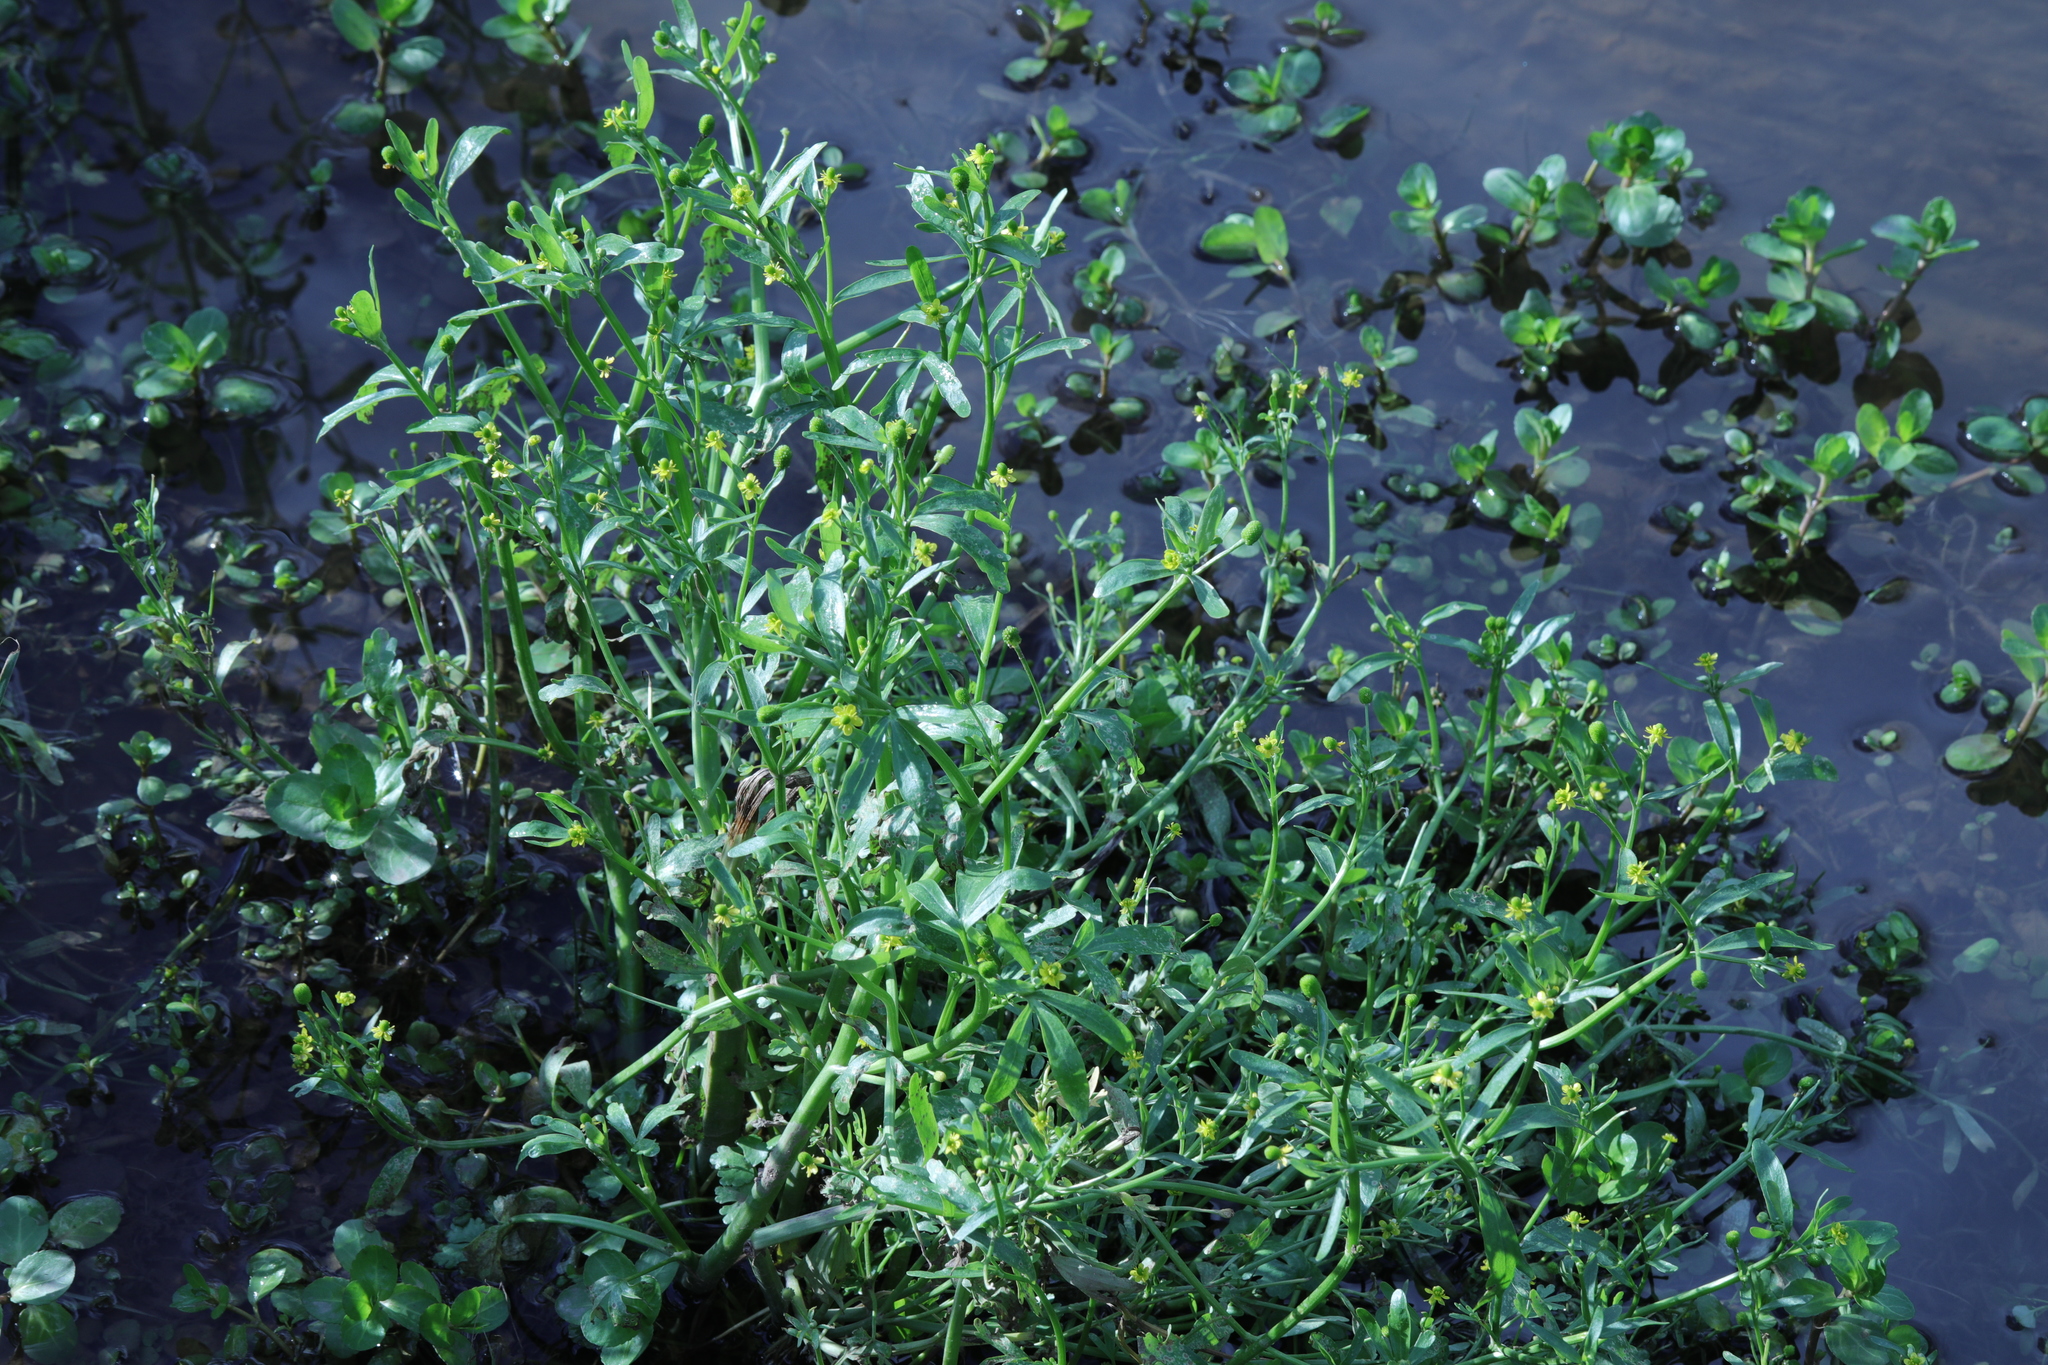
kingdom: Plantae
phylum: Tracheophyta
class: Magnoliopsida
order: Ranunculales
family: Ranunculaceae
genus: Ranunculus
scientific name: Ranunculus sceleratus
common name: Celery-leaved buttercup
